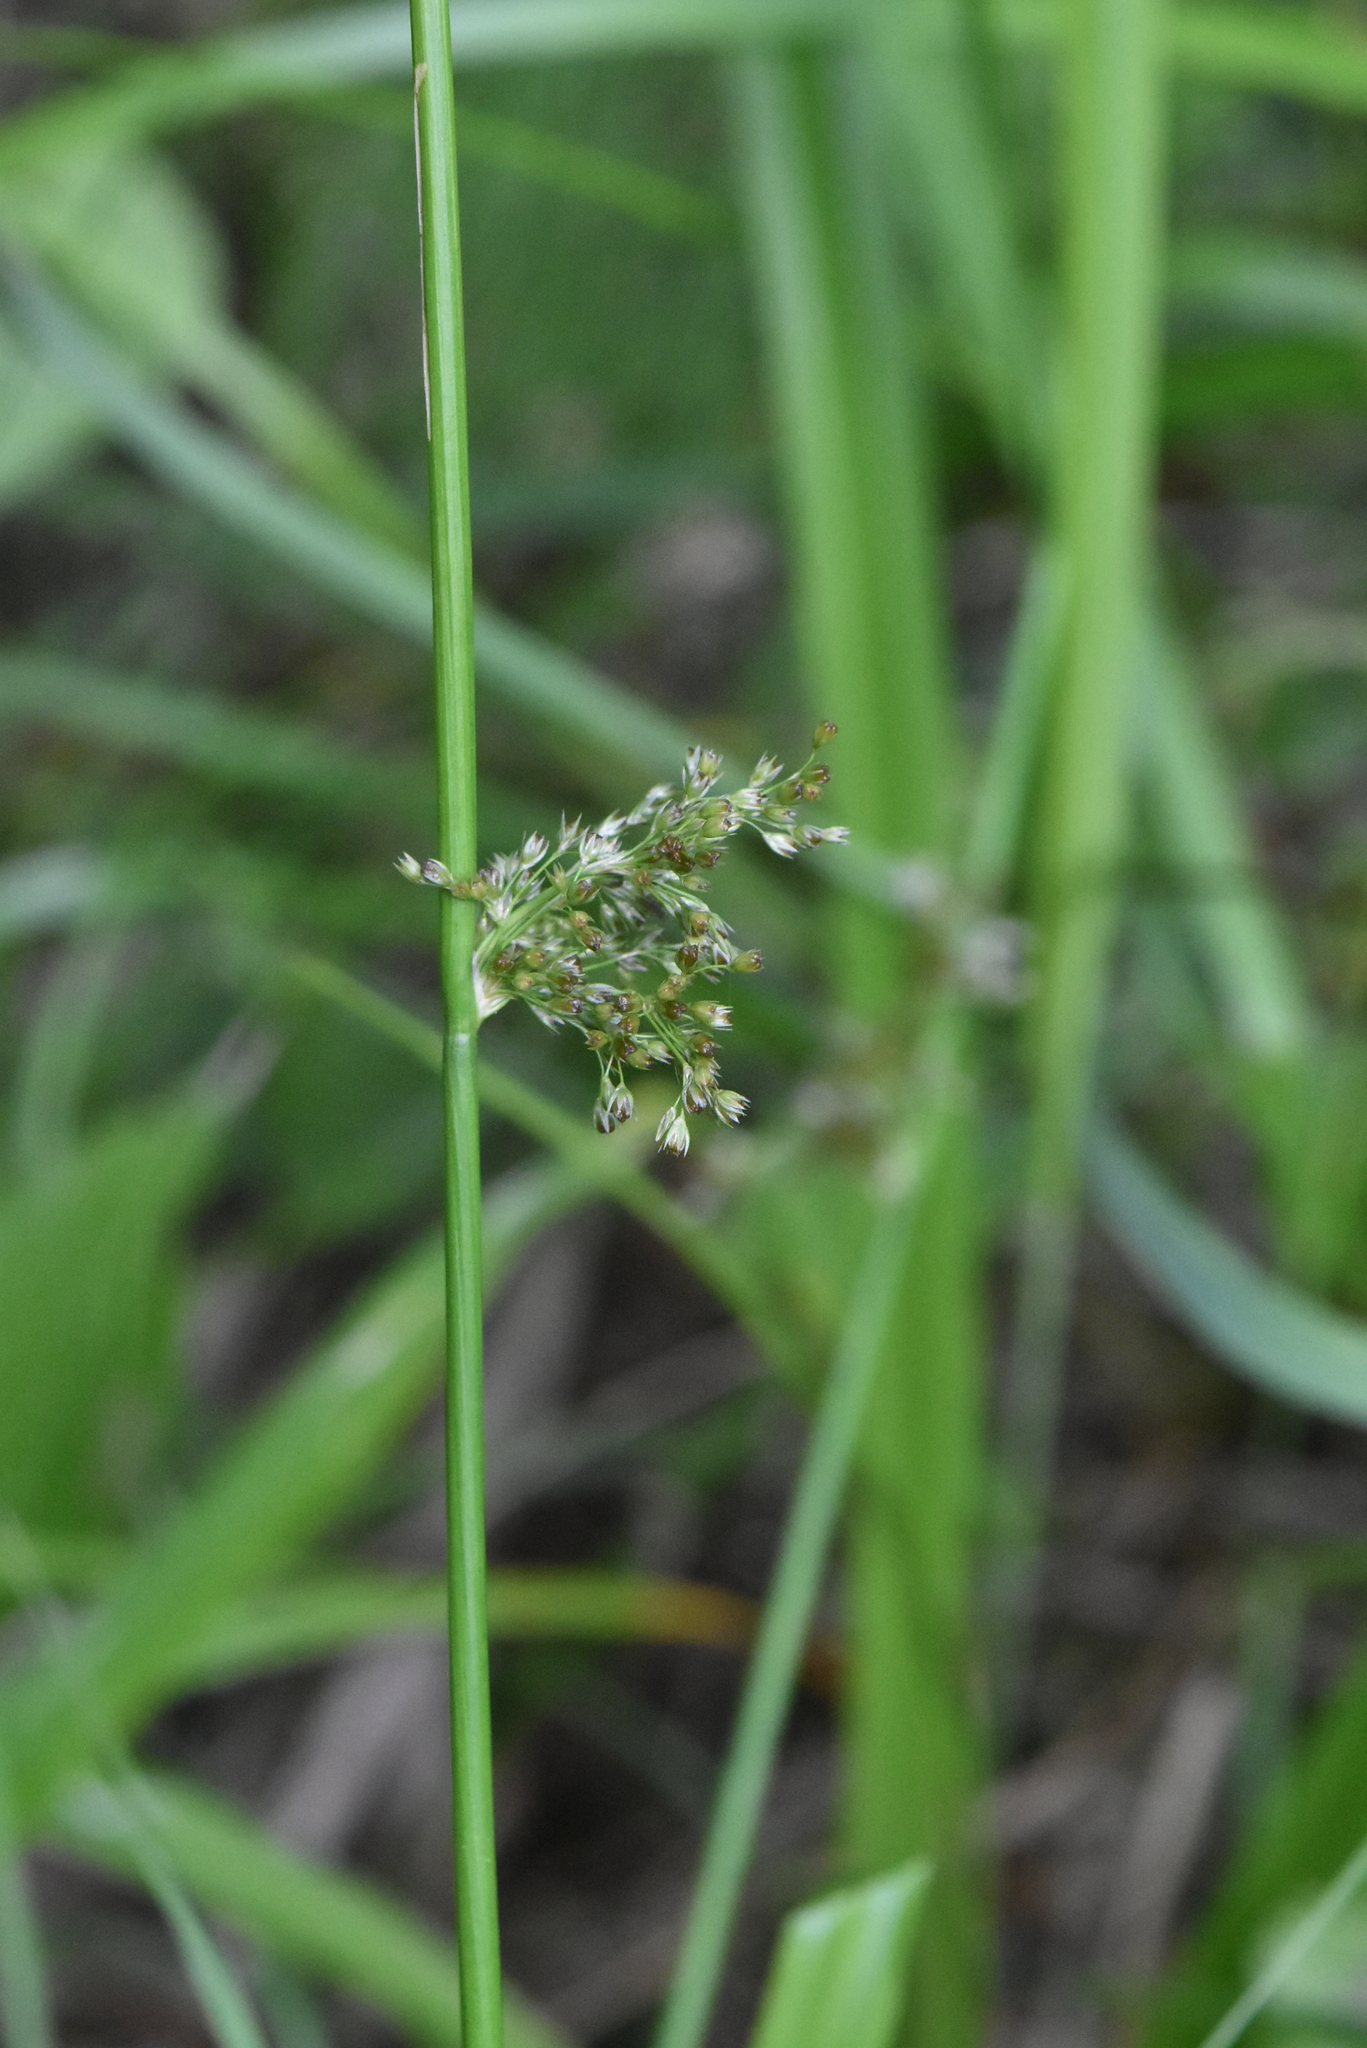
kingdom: Plantae
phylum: Tracheophyta
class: Liliopsida
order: Poales
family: Juncaceae
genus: Juncus
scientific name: Juncus effusus
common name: Soft rush
